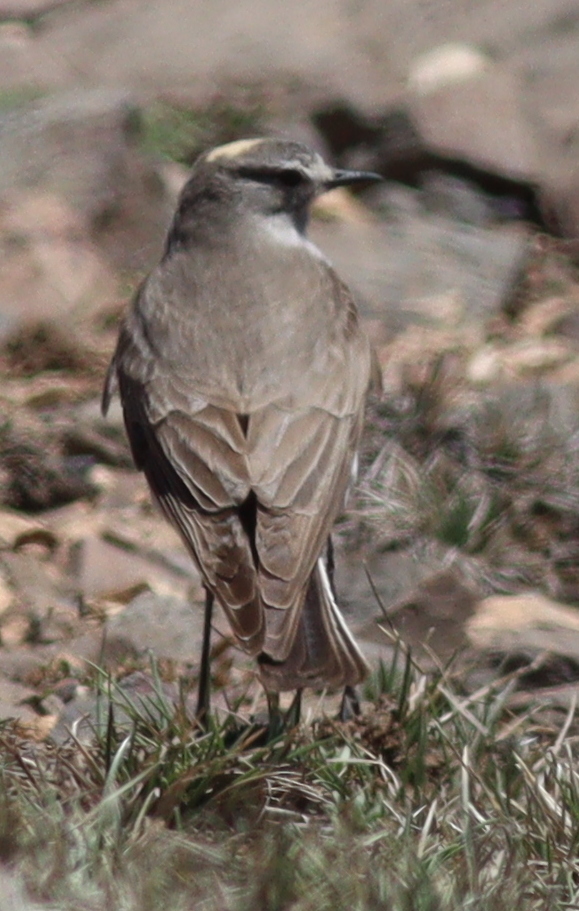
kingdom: Animalia
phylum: Chordata
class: Aves
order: Passeriformes
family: Tyrannidae
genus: Muscisaxicola
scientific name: Muscisaxicola flavinucha
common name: Ochre-naped ground tyrant
